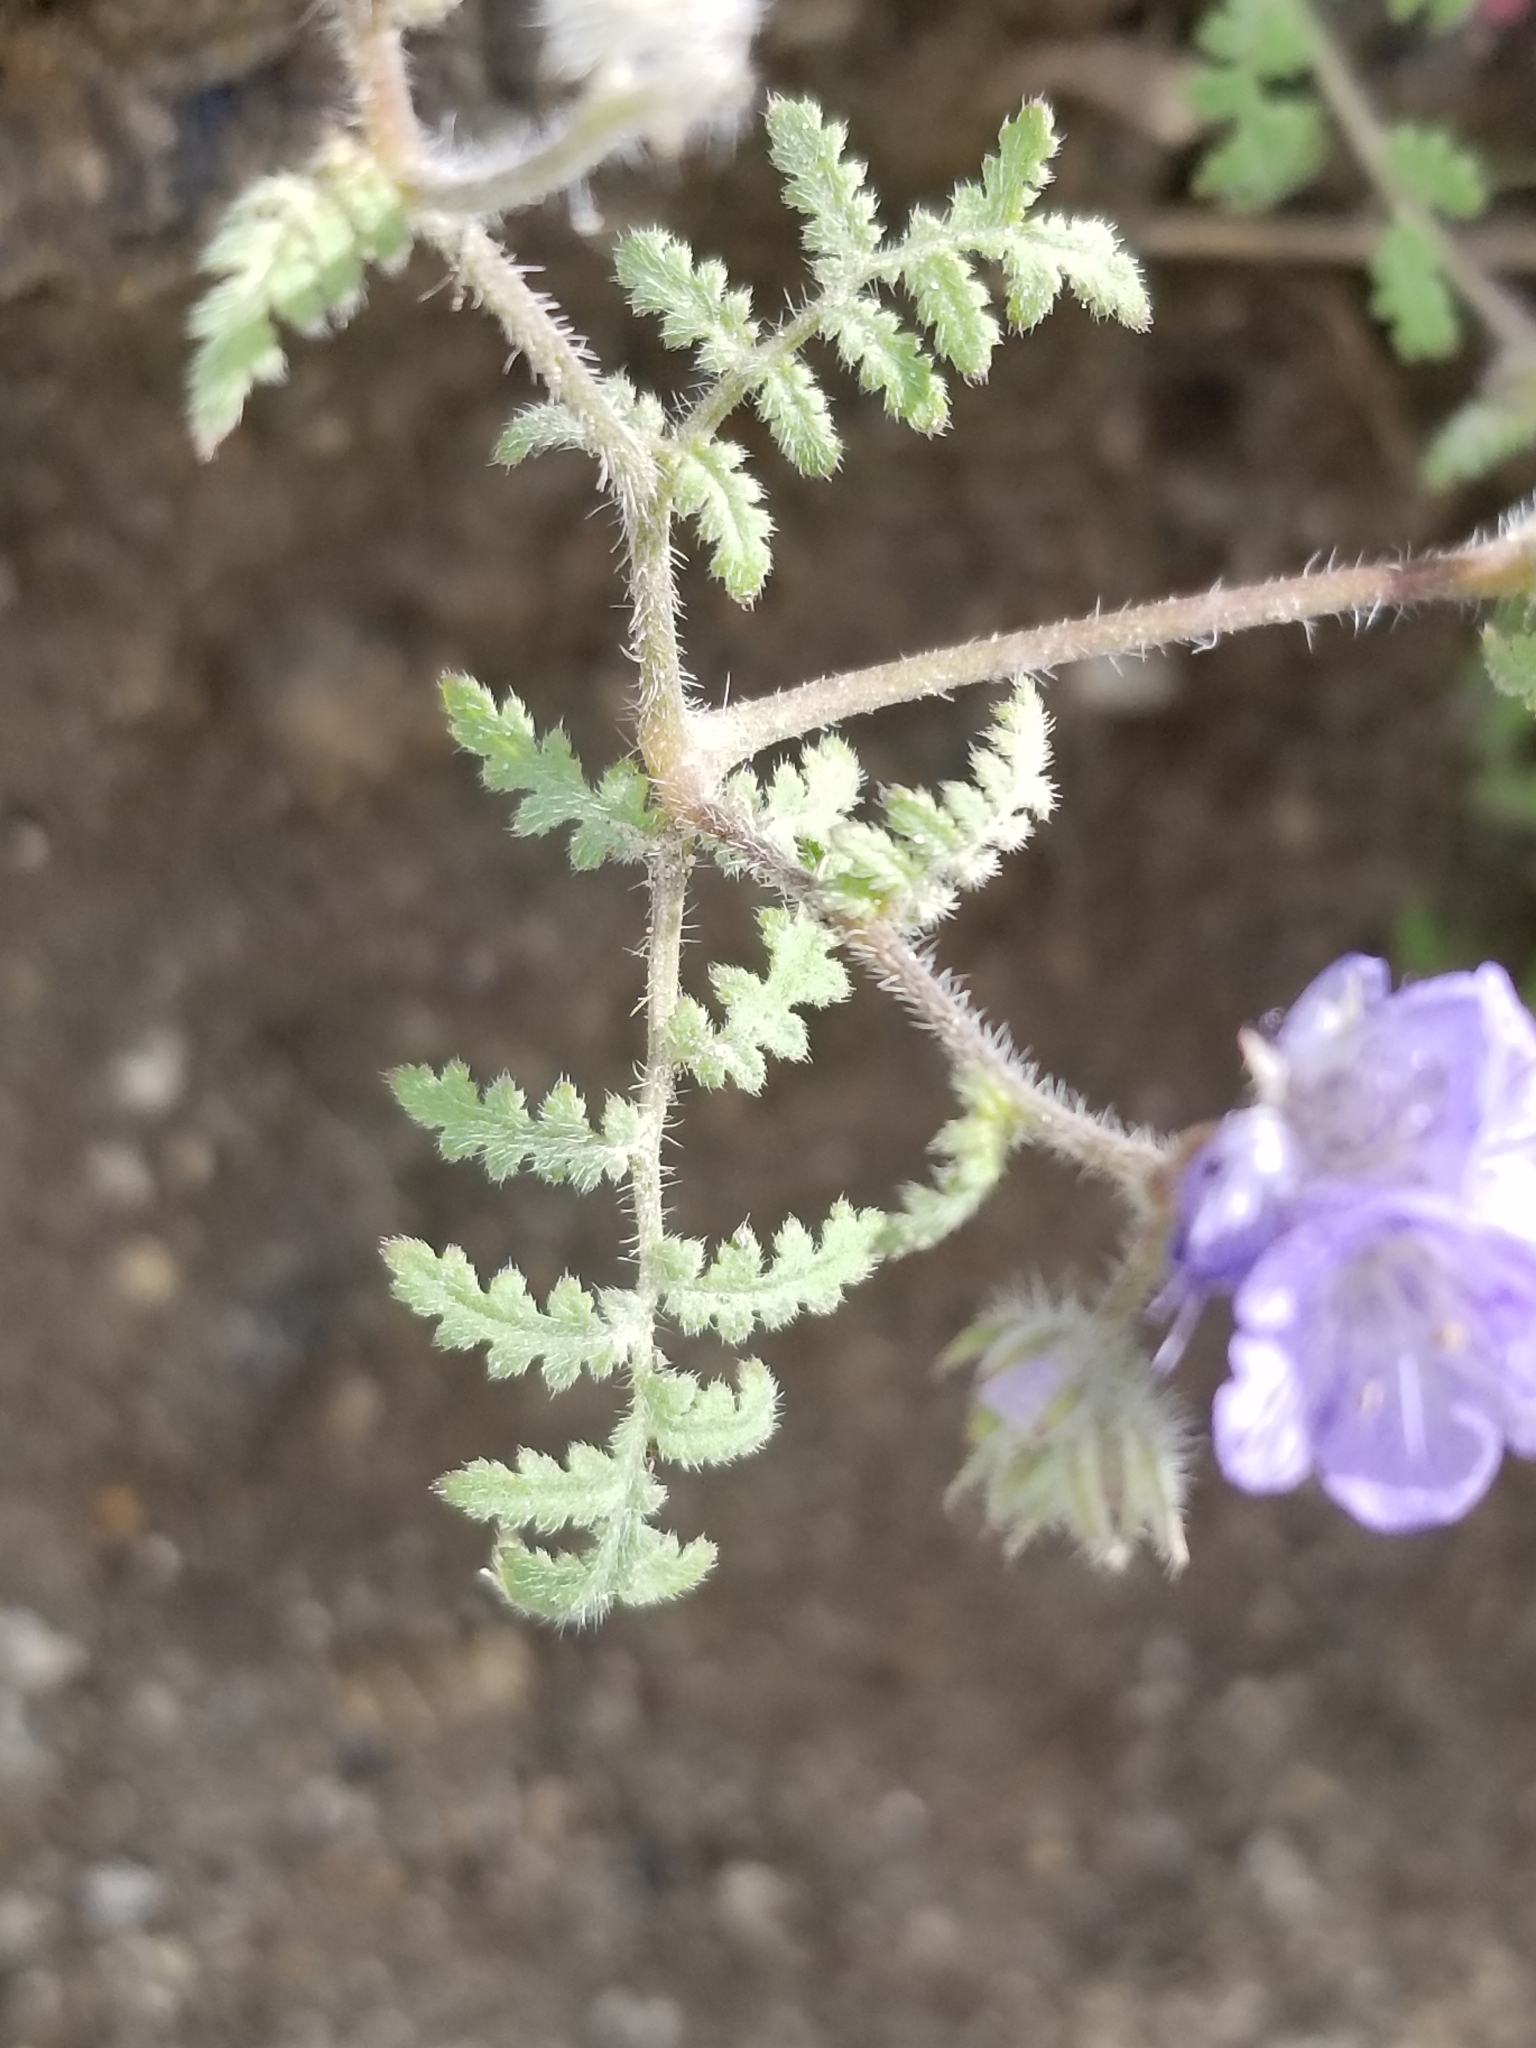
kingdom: Plantae
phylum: Tracheophyta
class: Magnoliopsida
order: Boraginales
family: Hydrophyllaceae
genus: Phacelia
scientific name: Phacelia distans
